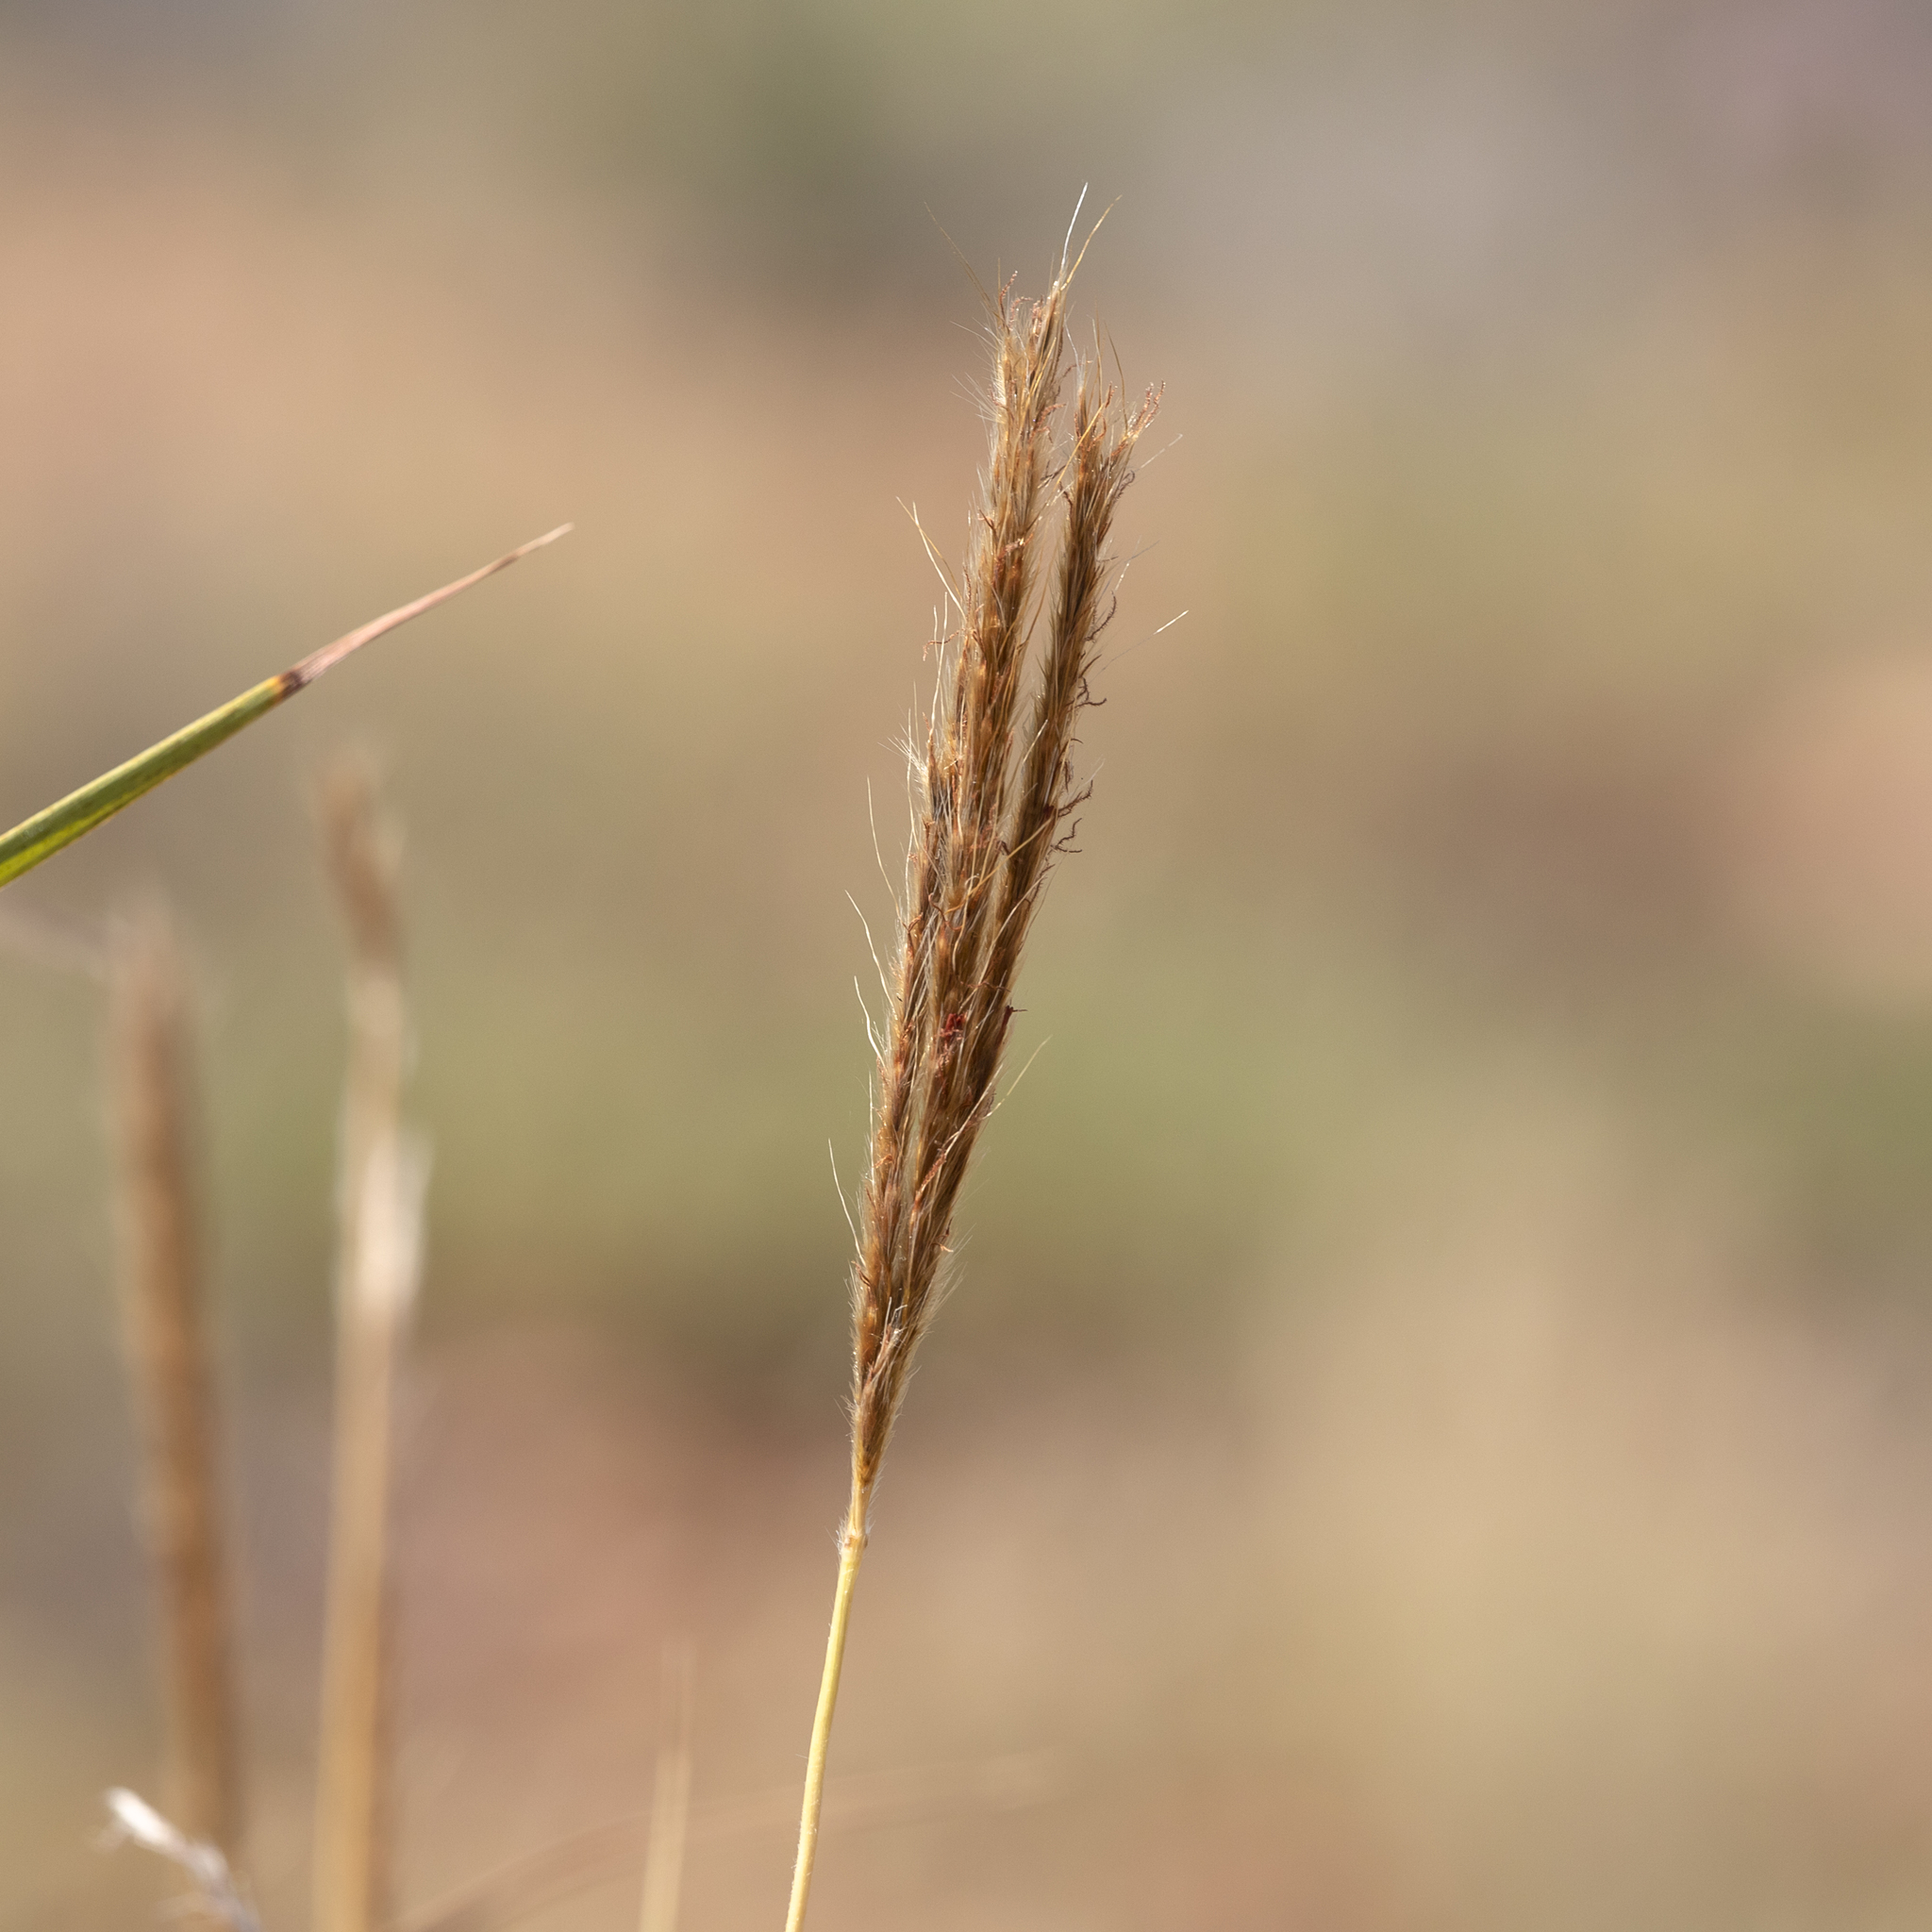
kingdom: Plantae
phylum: Tracheophyta
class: Liliopsida
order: Poales
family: Poaceae
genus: Eulalia
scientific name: Eulalia aurea
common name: Silky browntop
